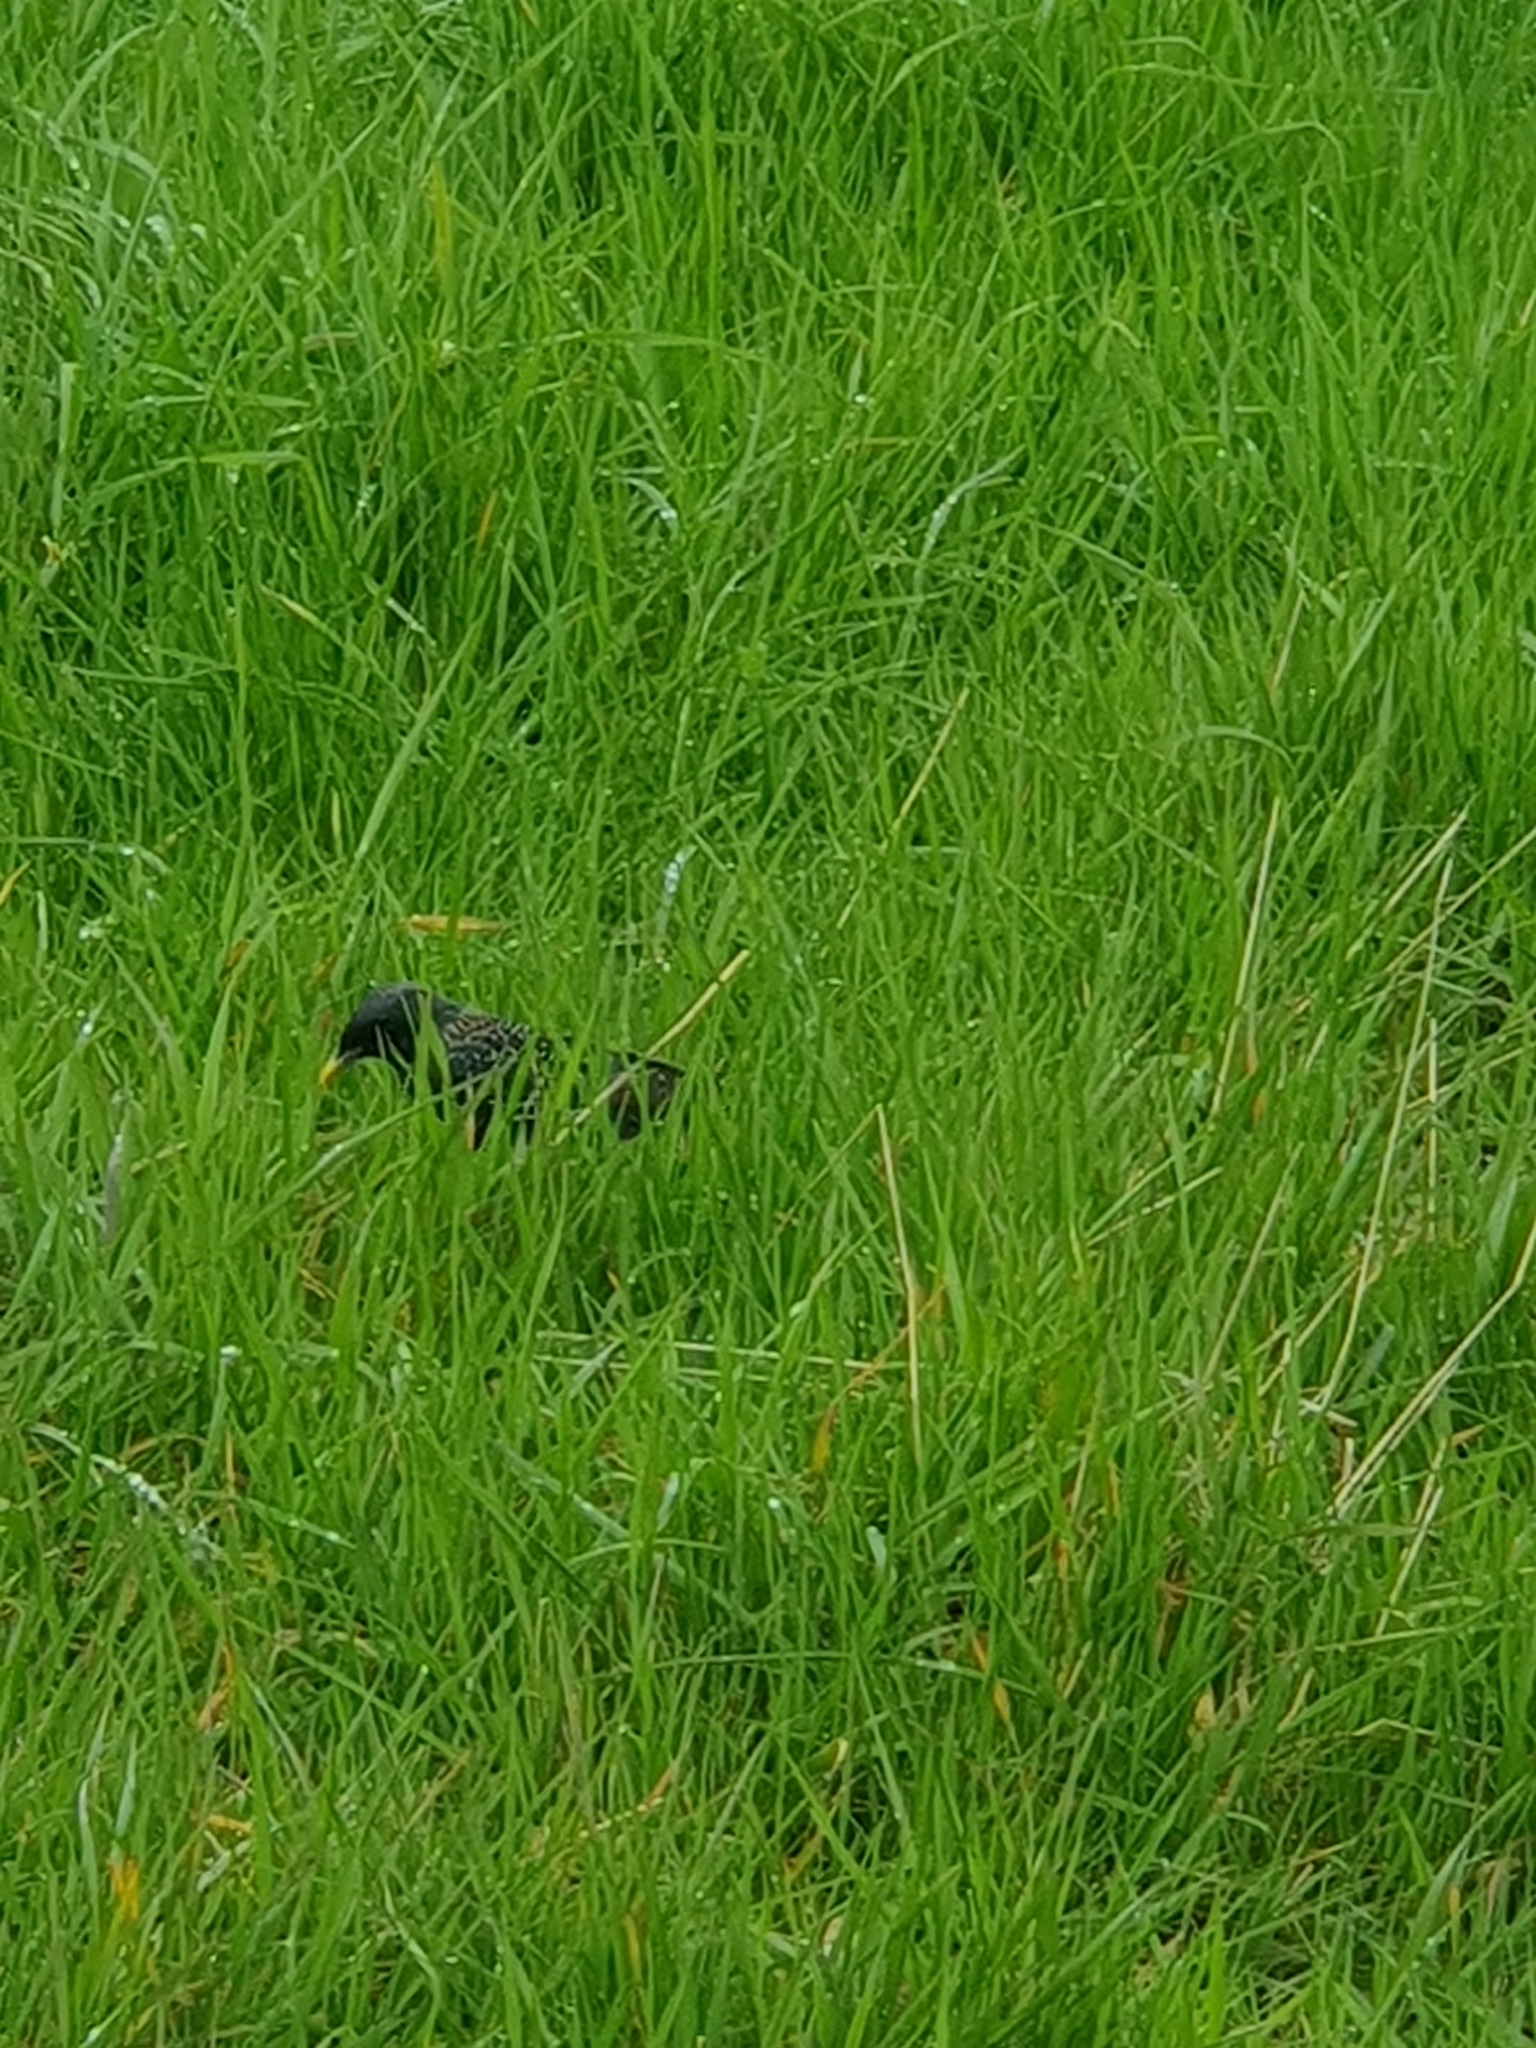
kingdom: Animalia
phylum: Chordata
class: Aves
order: Passeriformes
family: Sturnidae
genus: Sturnus
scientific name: Sturnus vulgaris
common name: Common starling
